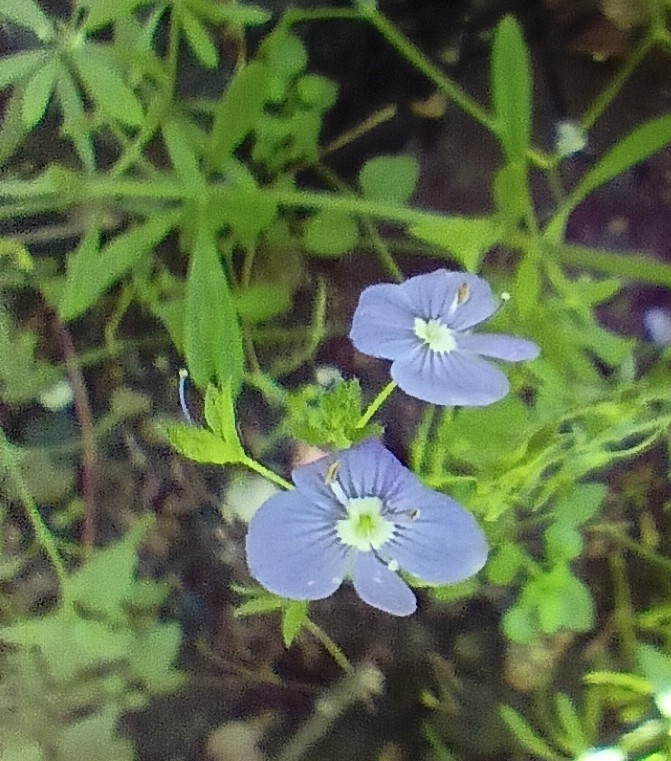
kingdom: Plantae
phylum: Tracheophyta
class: Magnoliopsida
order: Lamiales
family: Plantaginaceae
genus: Veronica
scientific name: Veronica chamaedrys
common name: Germander speedwell
